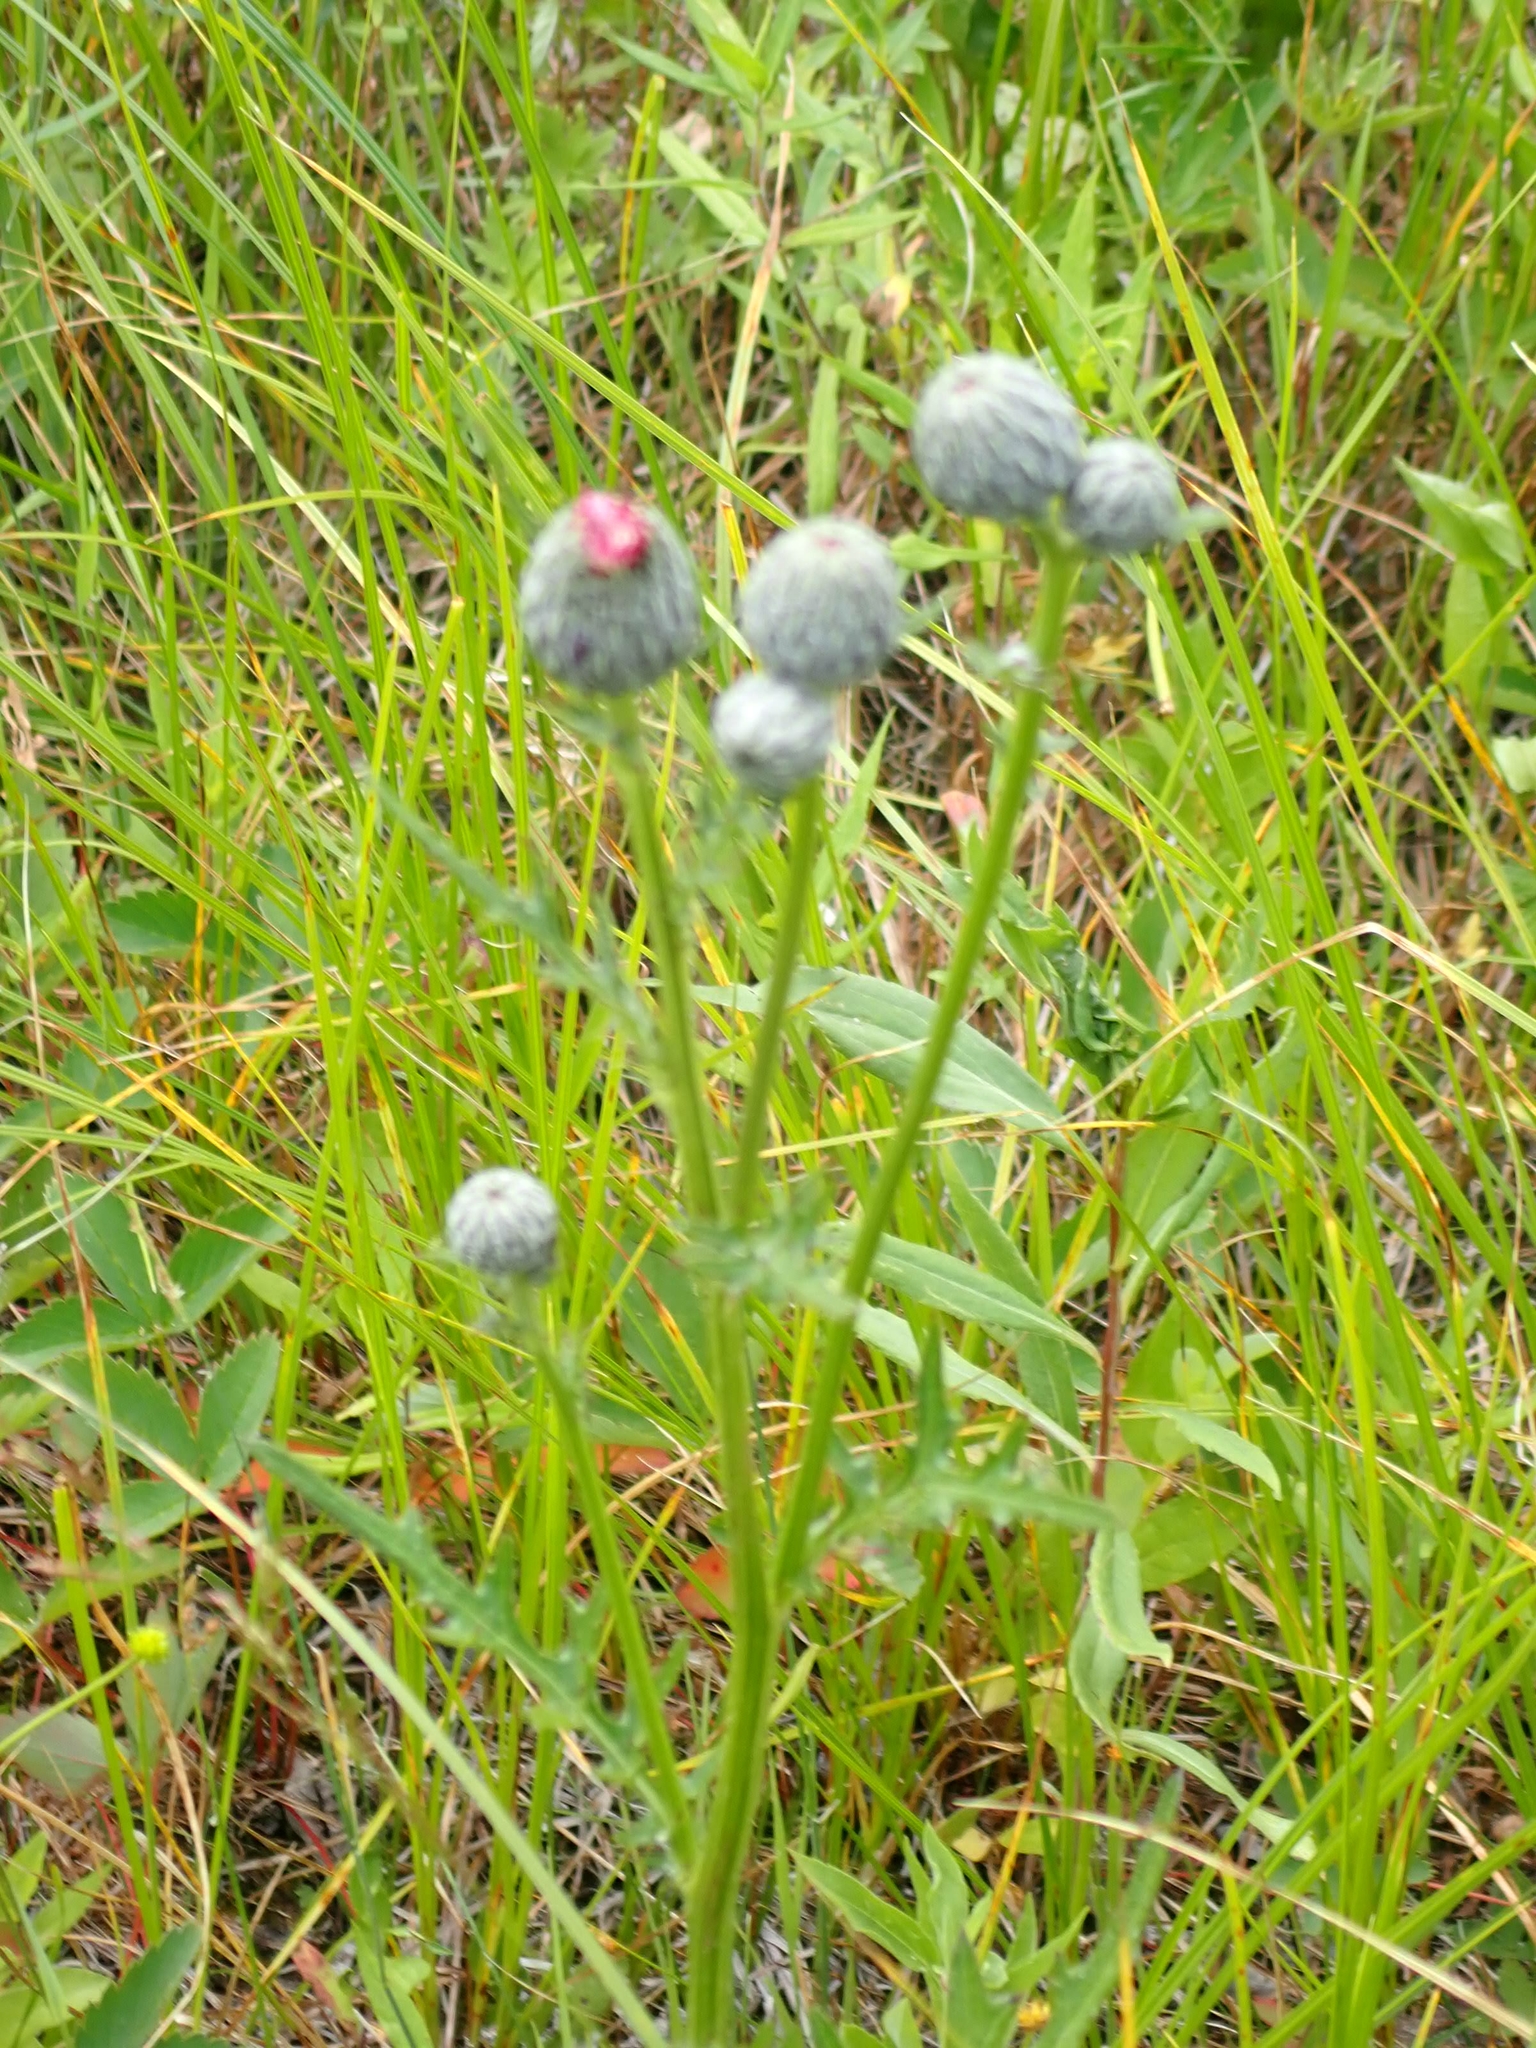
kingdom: Plantae
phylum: Tracheophyta
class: Magnoliopsida
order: Asterales
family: Asteraceae
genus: Cirsium
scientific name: Cirsium muticum
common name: Dunce-nettle
